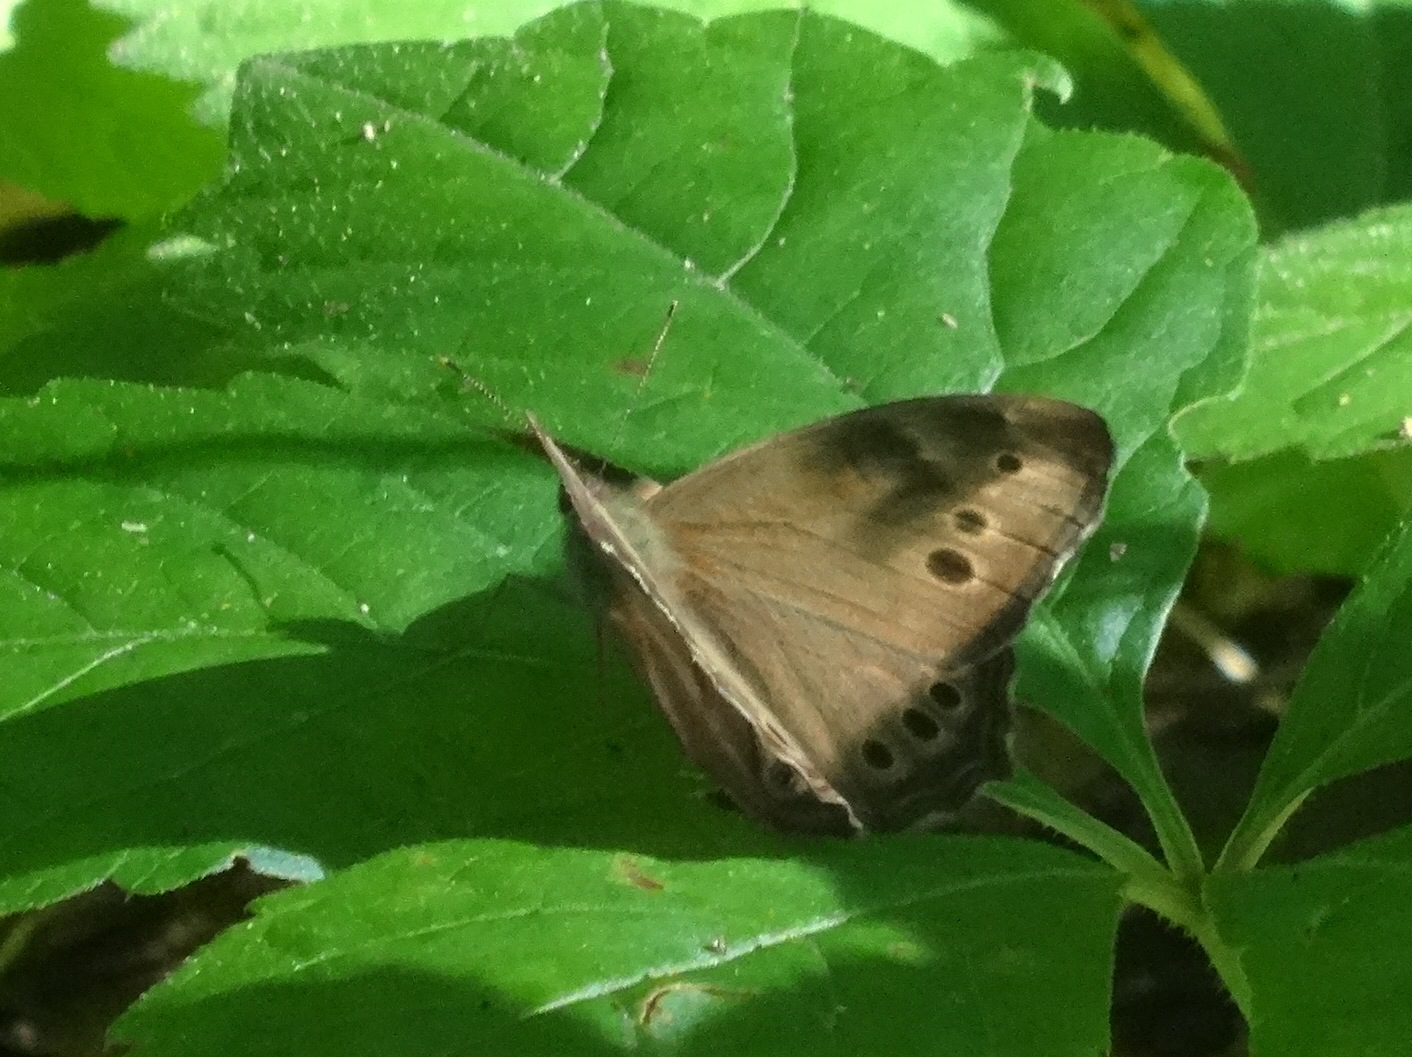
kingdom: Animalia
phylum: Arthropoda
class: Insecta
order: Lepidoptera
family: Nymphalidae
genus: Lethe
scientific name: Lethe anthedon
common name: Northern pearly-eye
